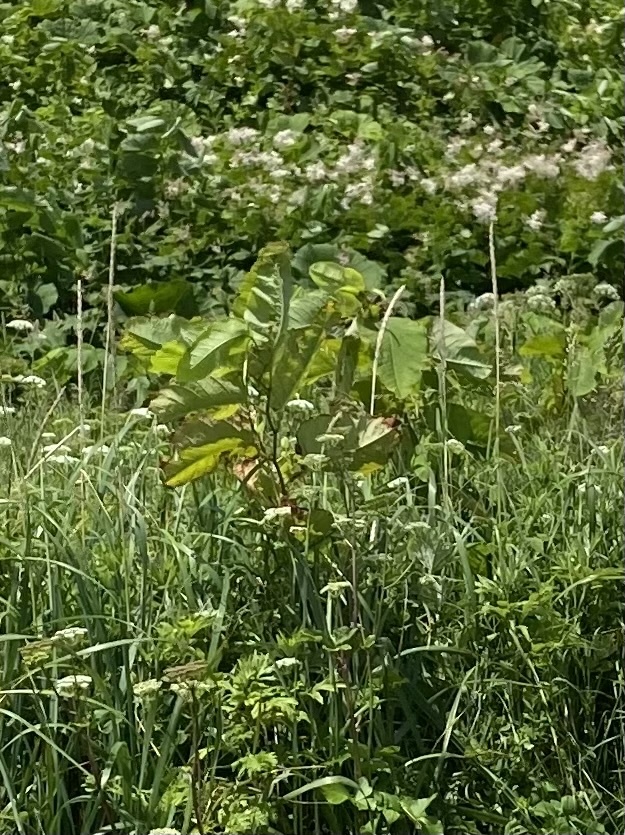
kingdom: Plantae
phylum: Tracheophyta
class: Magnoliopsida
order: Caryophyllales
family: Polygonaceae
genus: Reynoutria
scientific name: Reynoutria sachalinensis
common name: Giant knotweed
